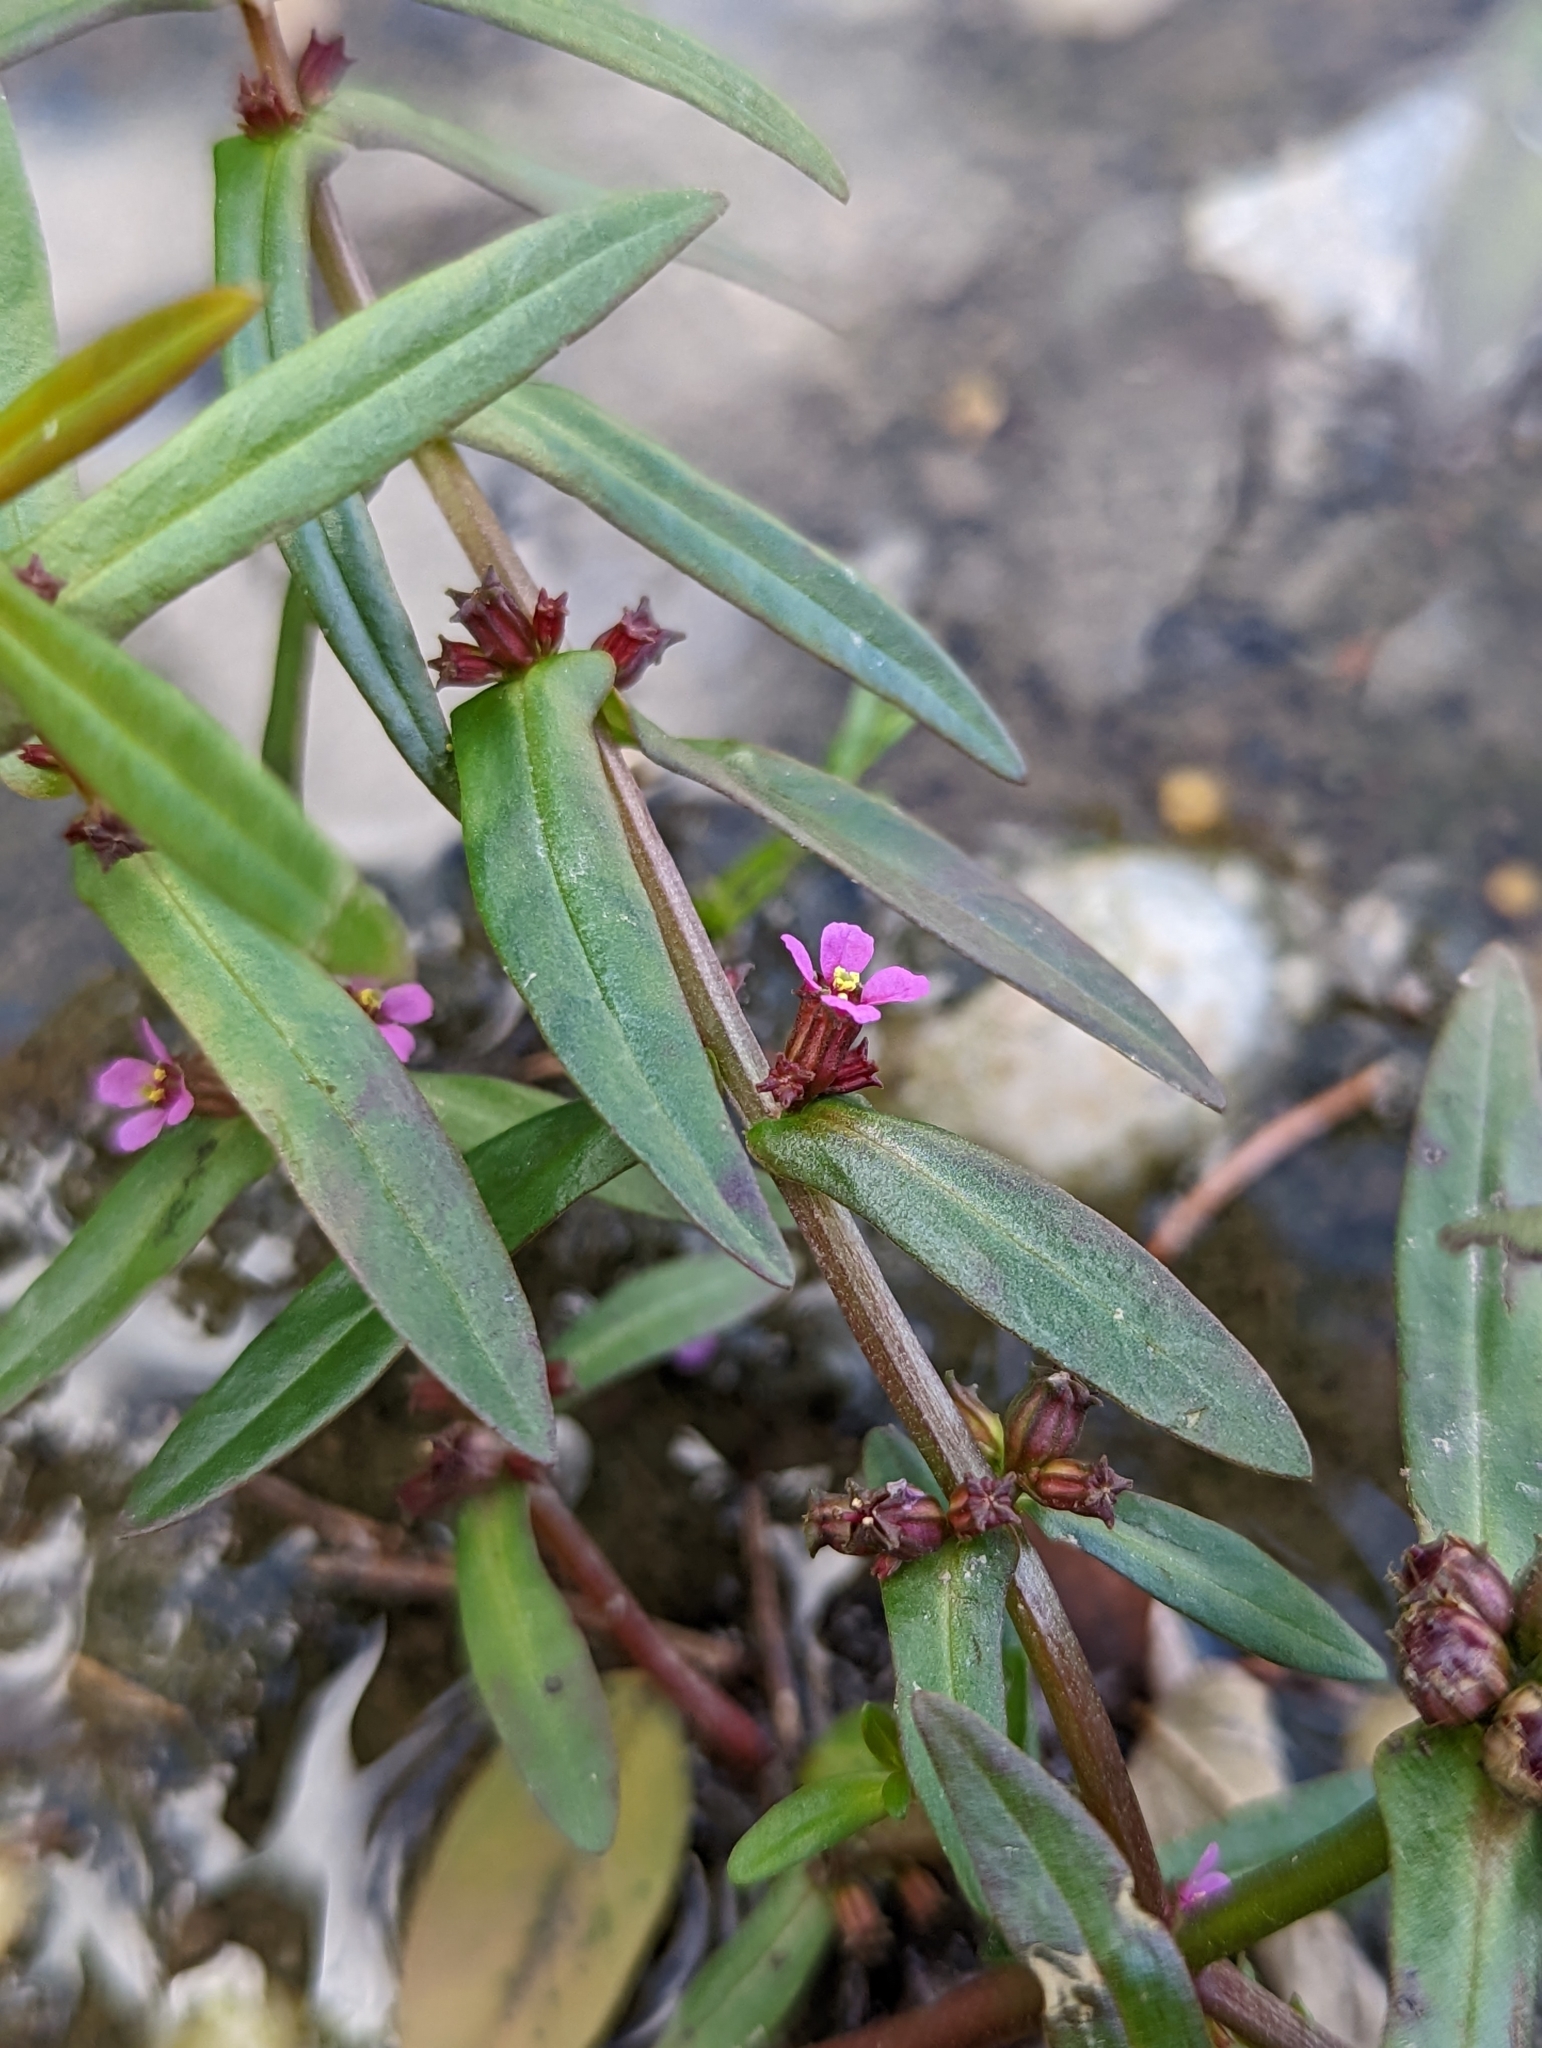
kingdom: Plantae
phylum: Tracheophyta
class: Magnoliopsida
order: Myrtales
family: Lythraceae
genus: Ammannia
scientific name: Ammannia coccinea
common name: Valley redstem
